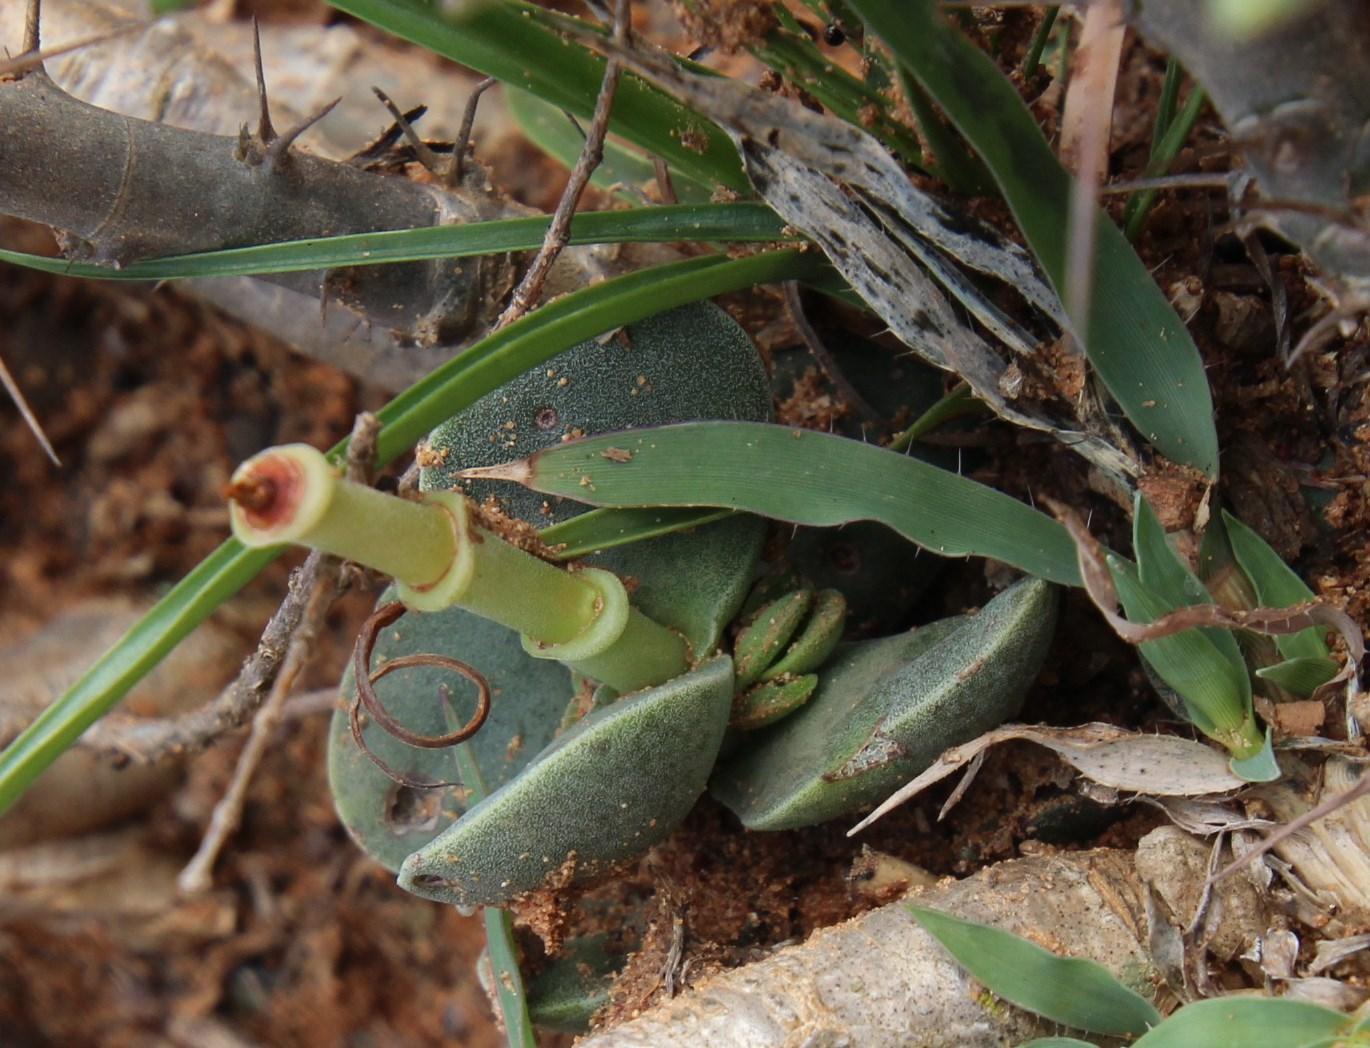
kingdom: Plantae
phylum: Tracheophyta
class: Magnoliopsida
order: Saxifragales
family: Crassulaceae
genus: Crassula
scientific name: Crassula decidua
